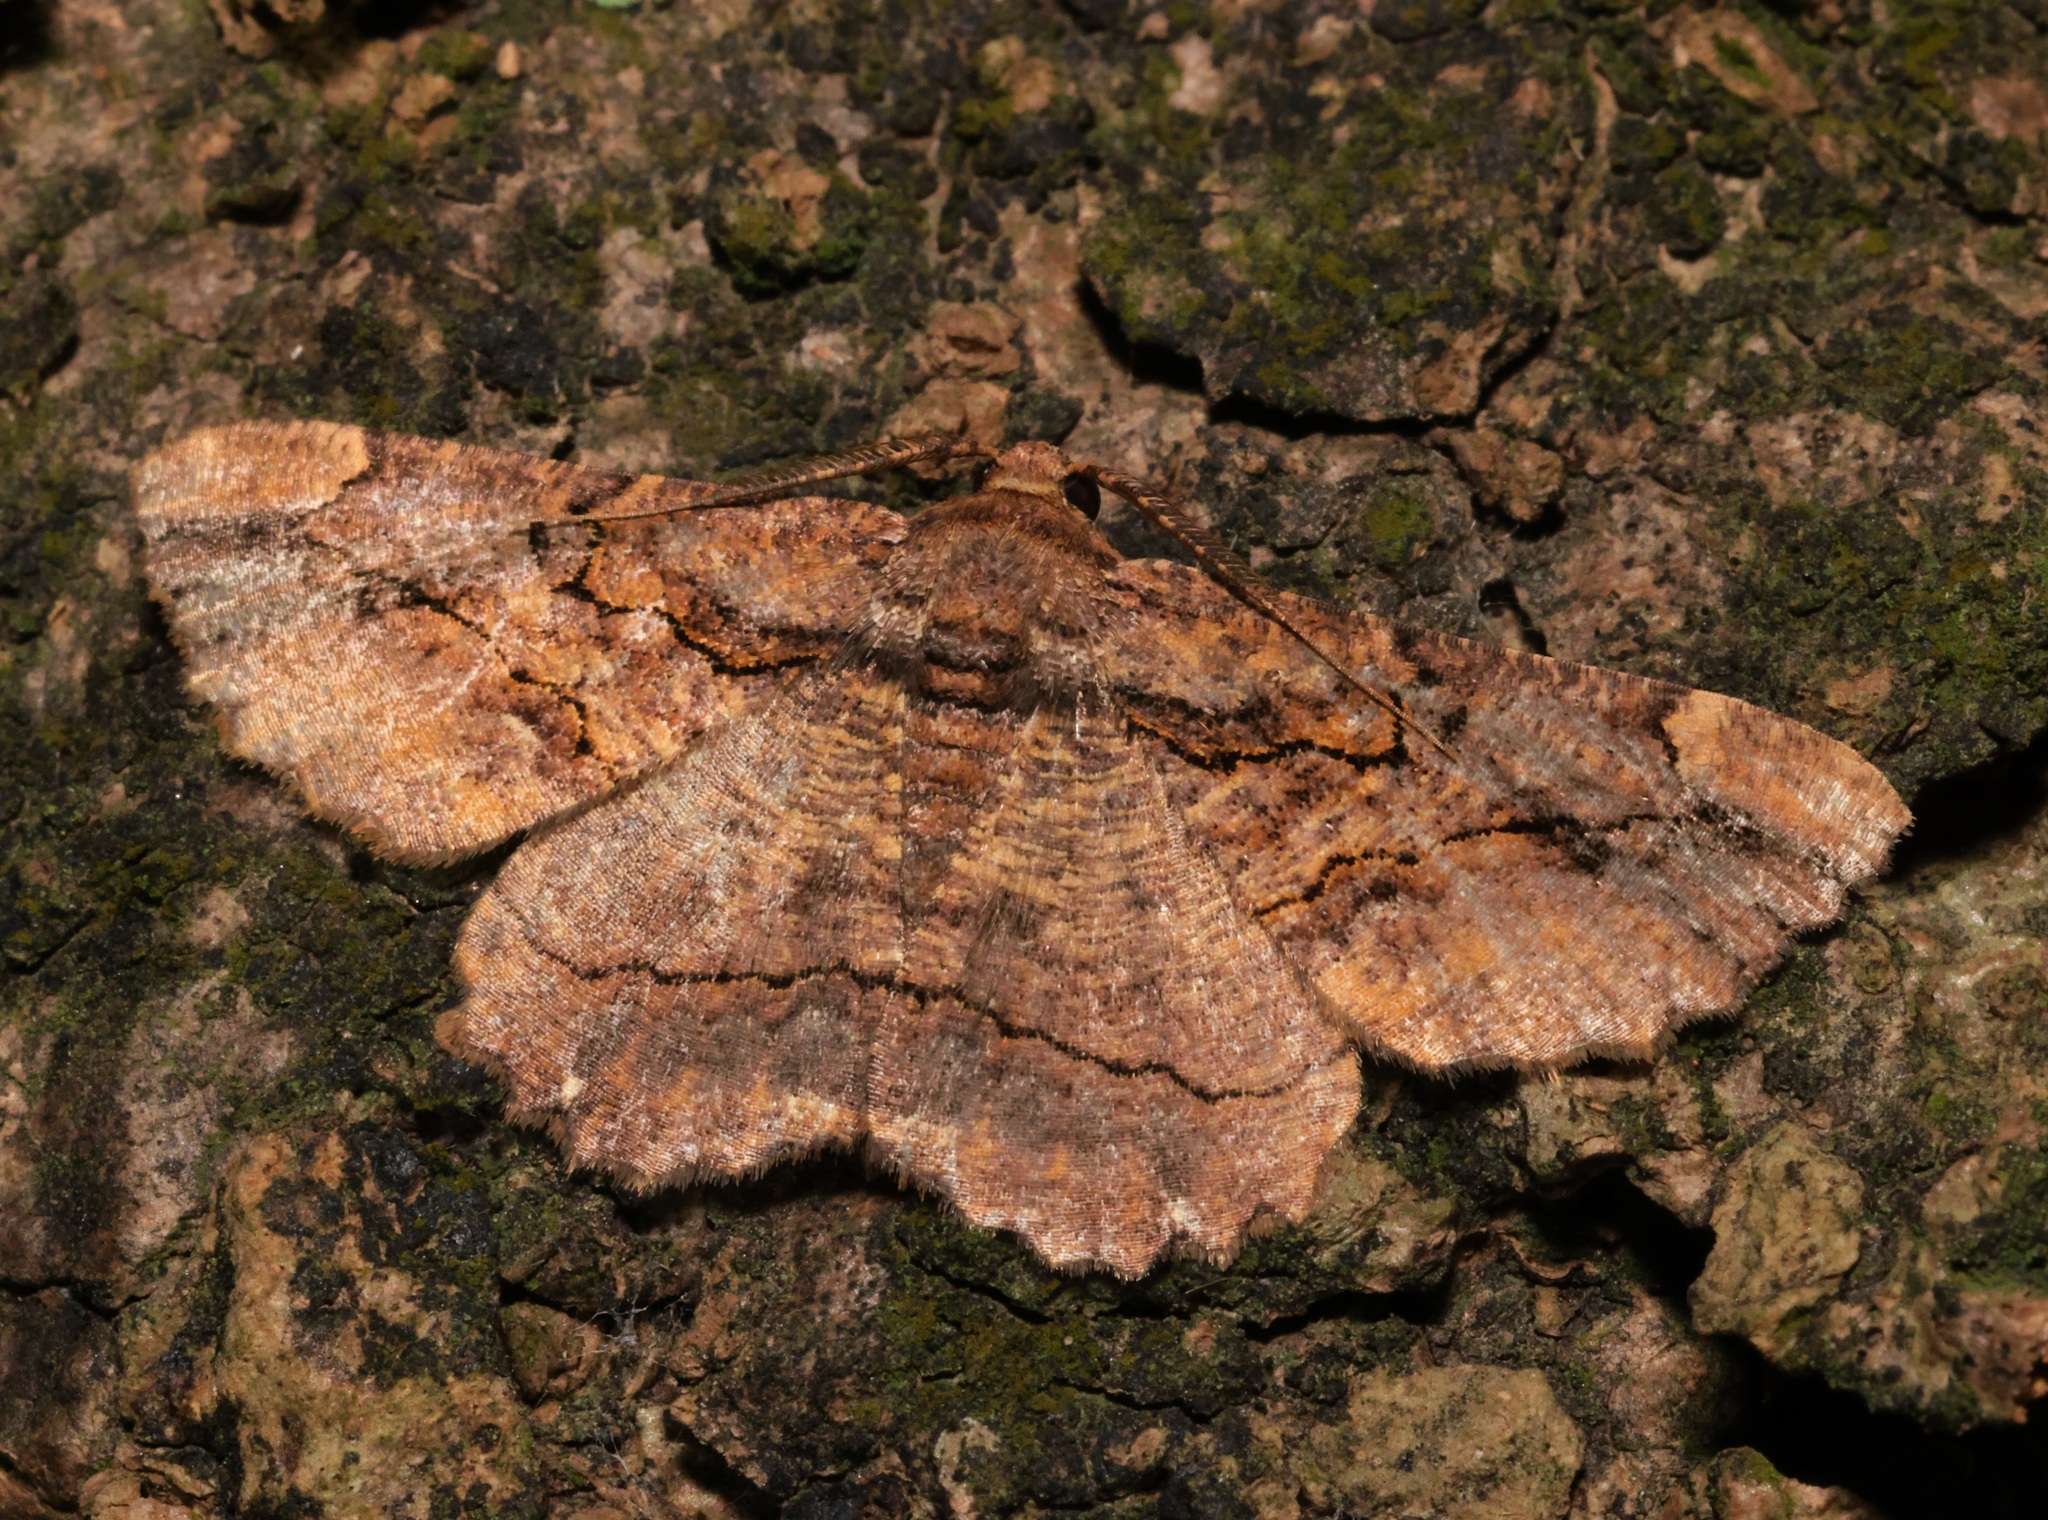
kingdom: Animalia
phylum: Arthropoda
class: Insecta
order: Lepidoptera
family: Geometridae
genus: Dasyboarmia
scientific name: Dasyboarmia subpilosa
